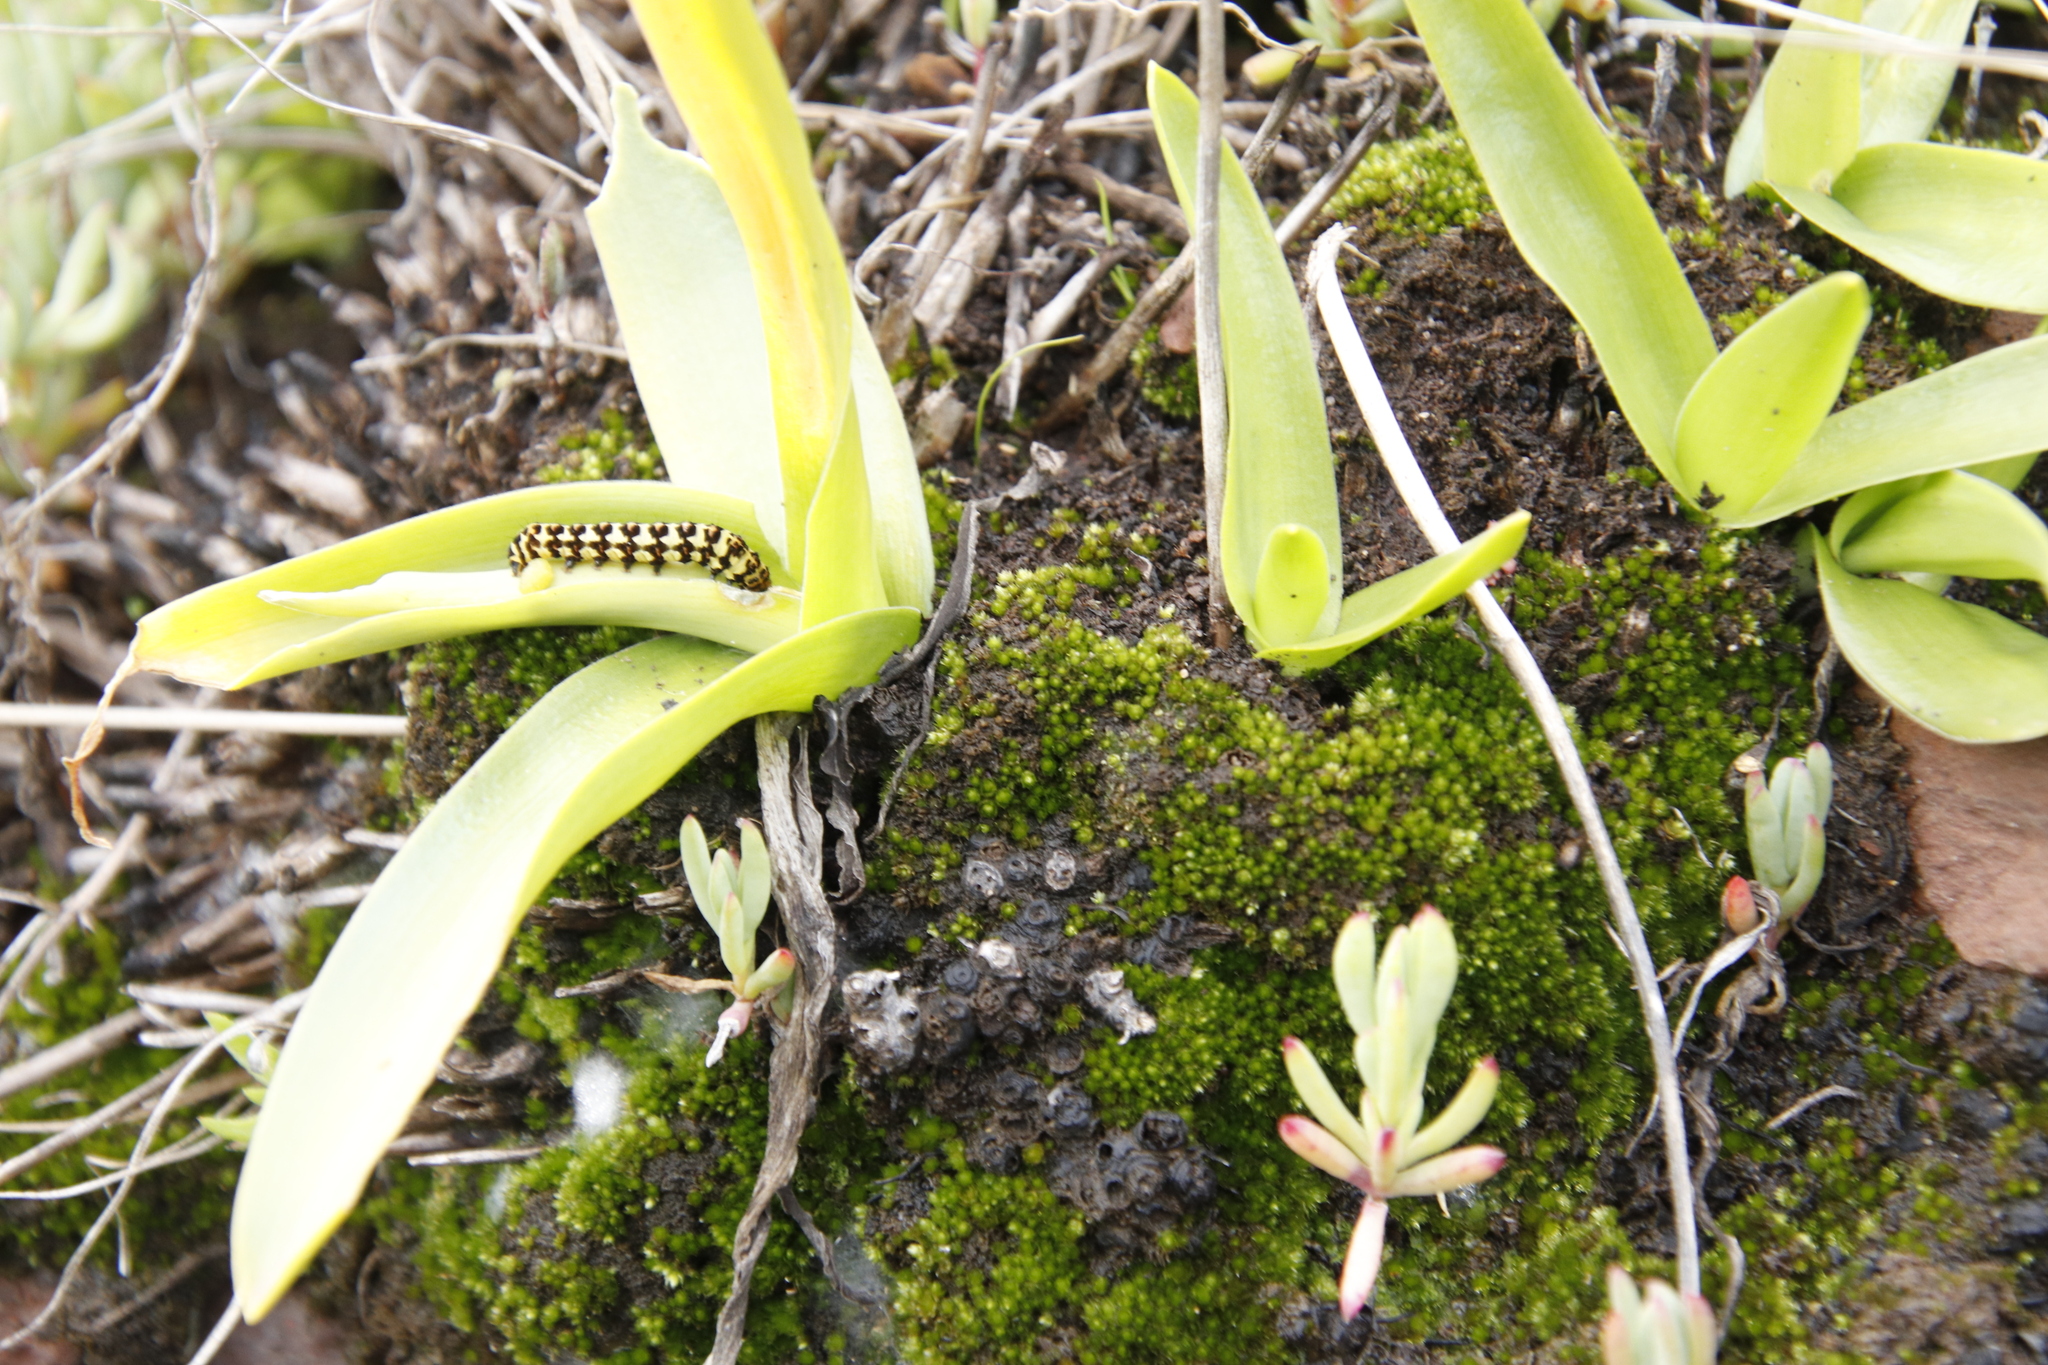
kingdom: Animalia
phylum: Arthropoda
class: Insecta
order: Lepidoptera
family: Noctuidae
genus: Diaphone
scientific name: Diaphone eumela
